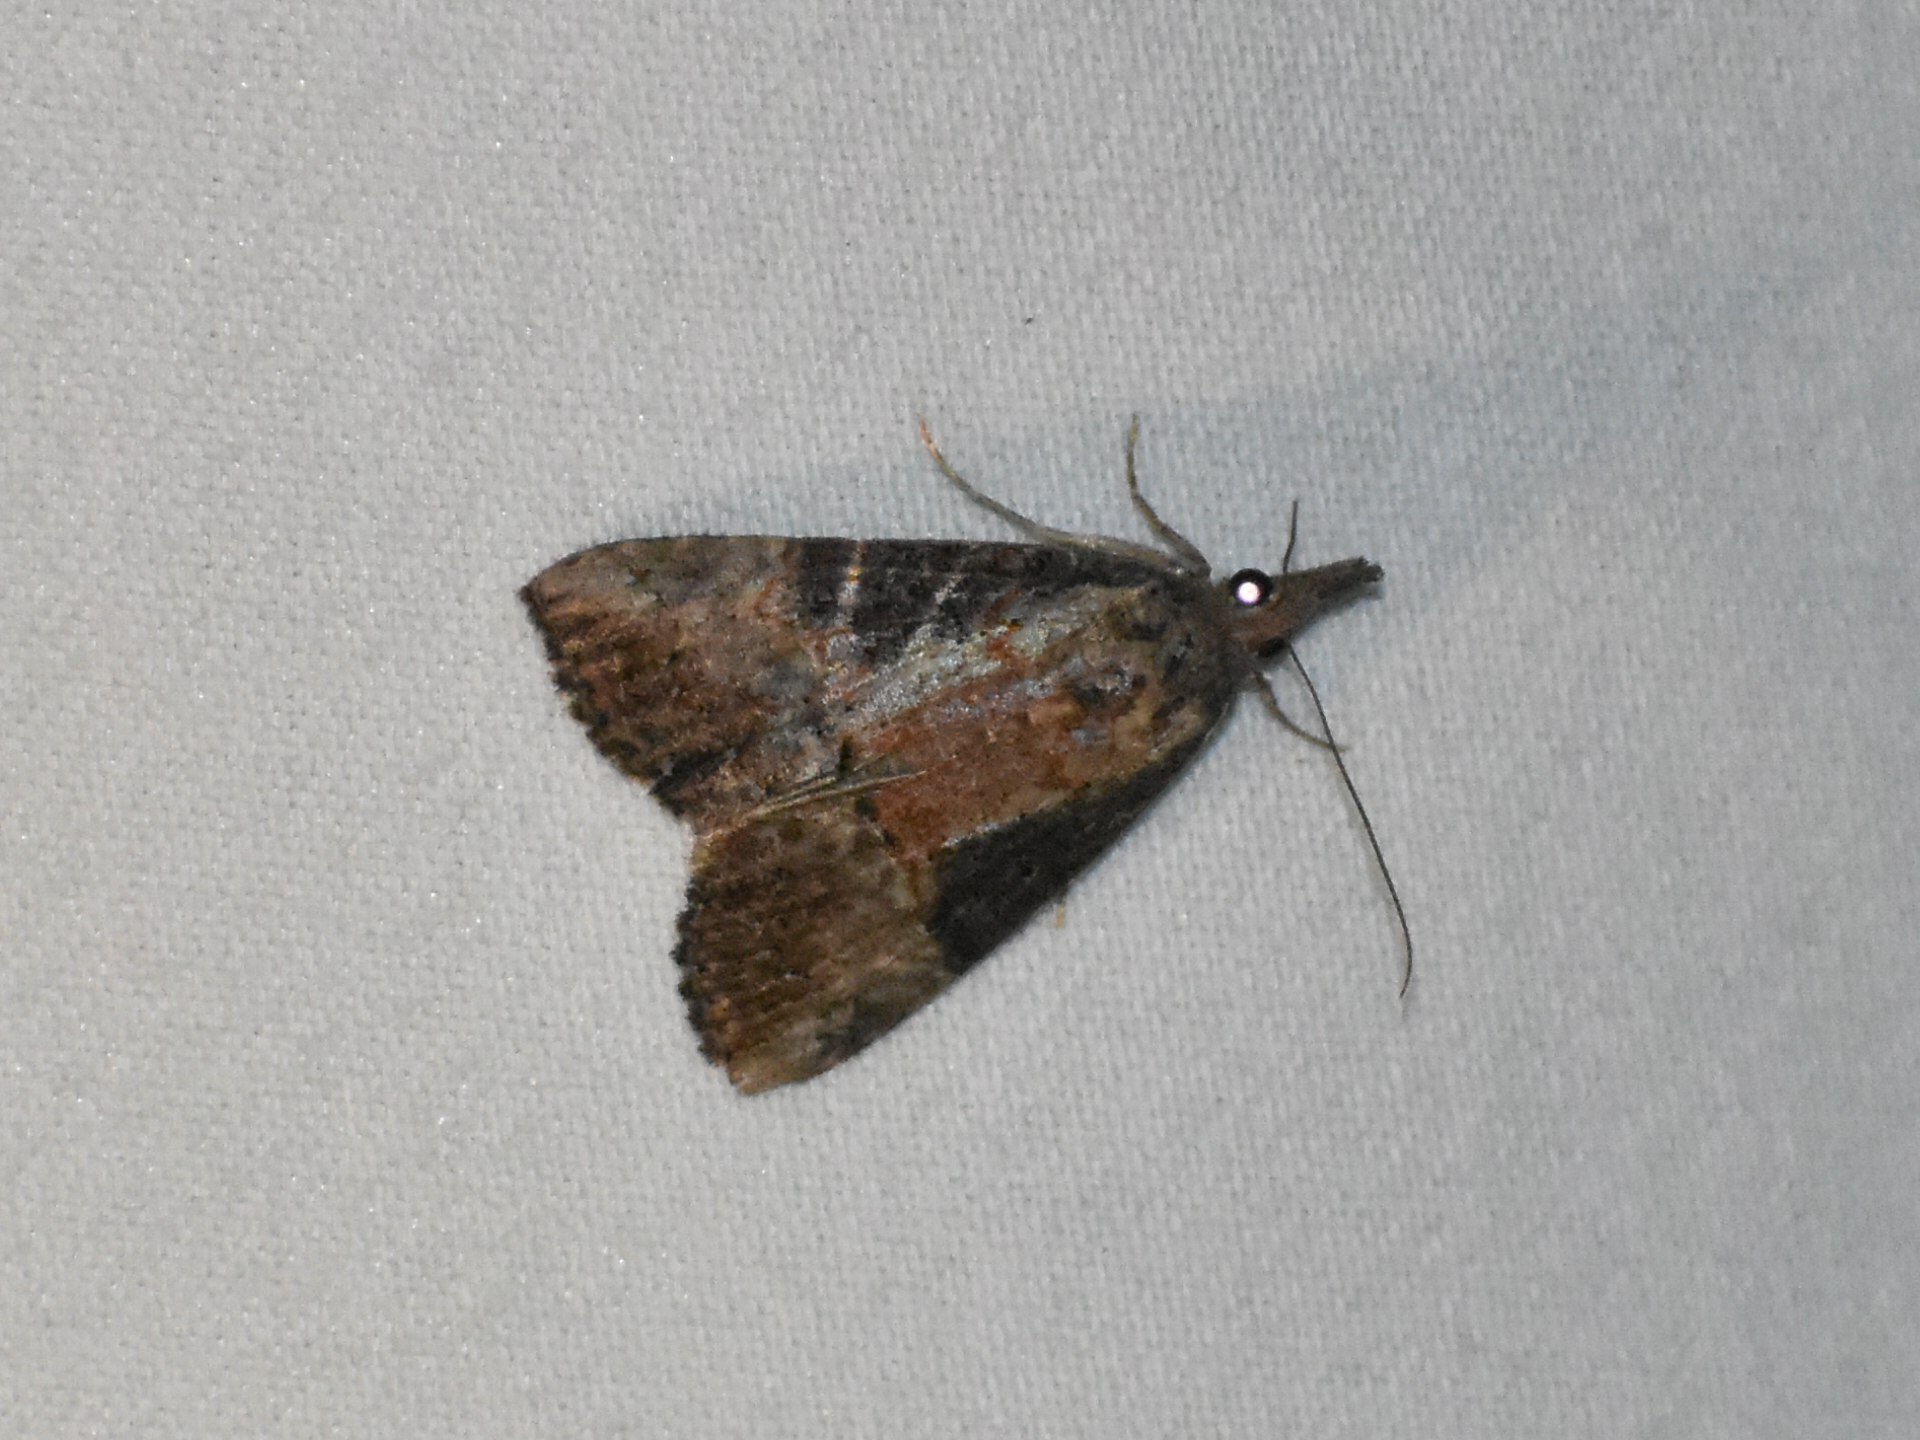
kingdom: Animalia
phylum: Arthropoda
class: Insecta
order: Lepidoptera
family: Erebidae
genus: Hypena
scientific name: Hypena scabra
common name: Green cloverworm
